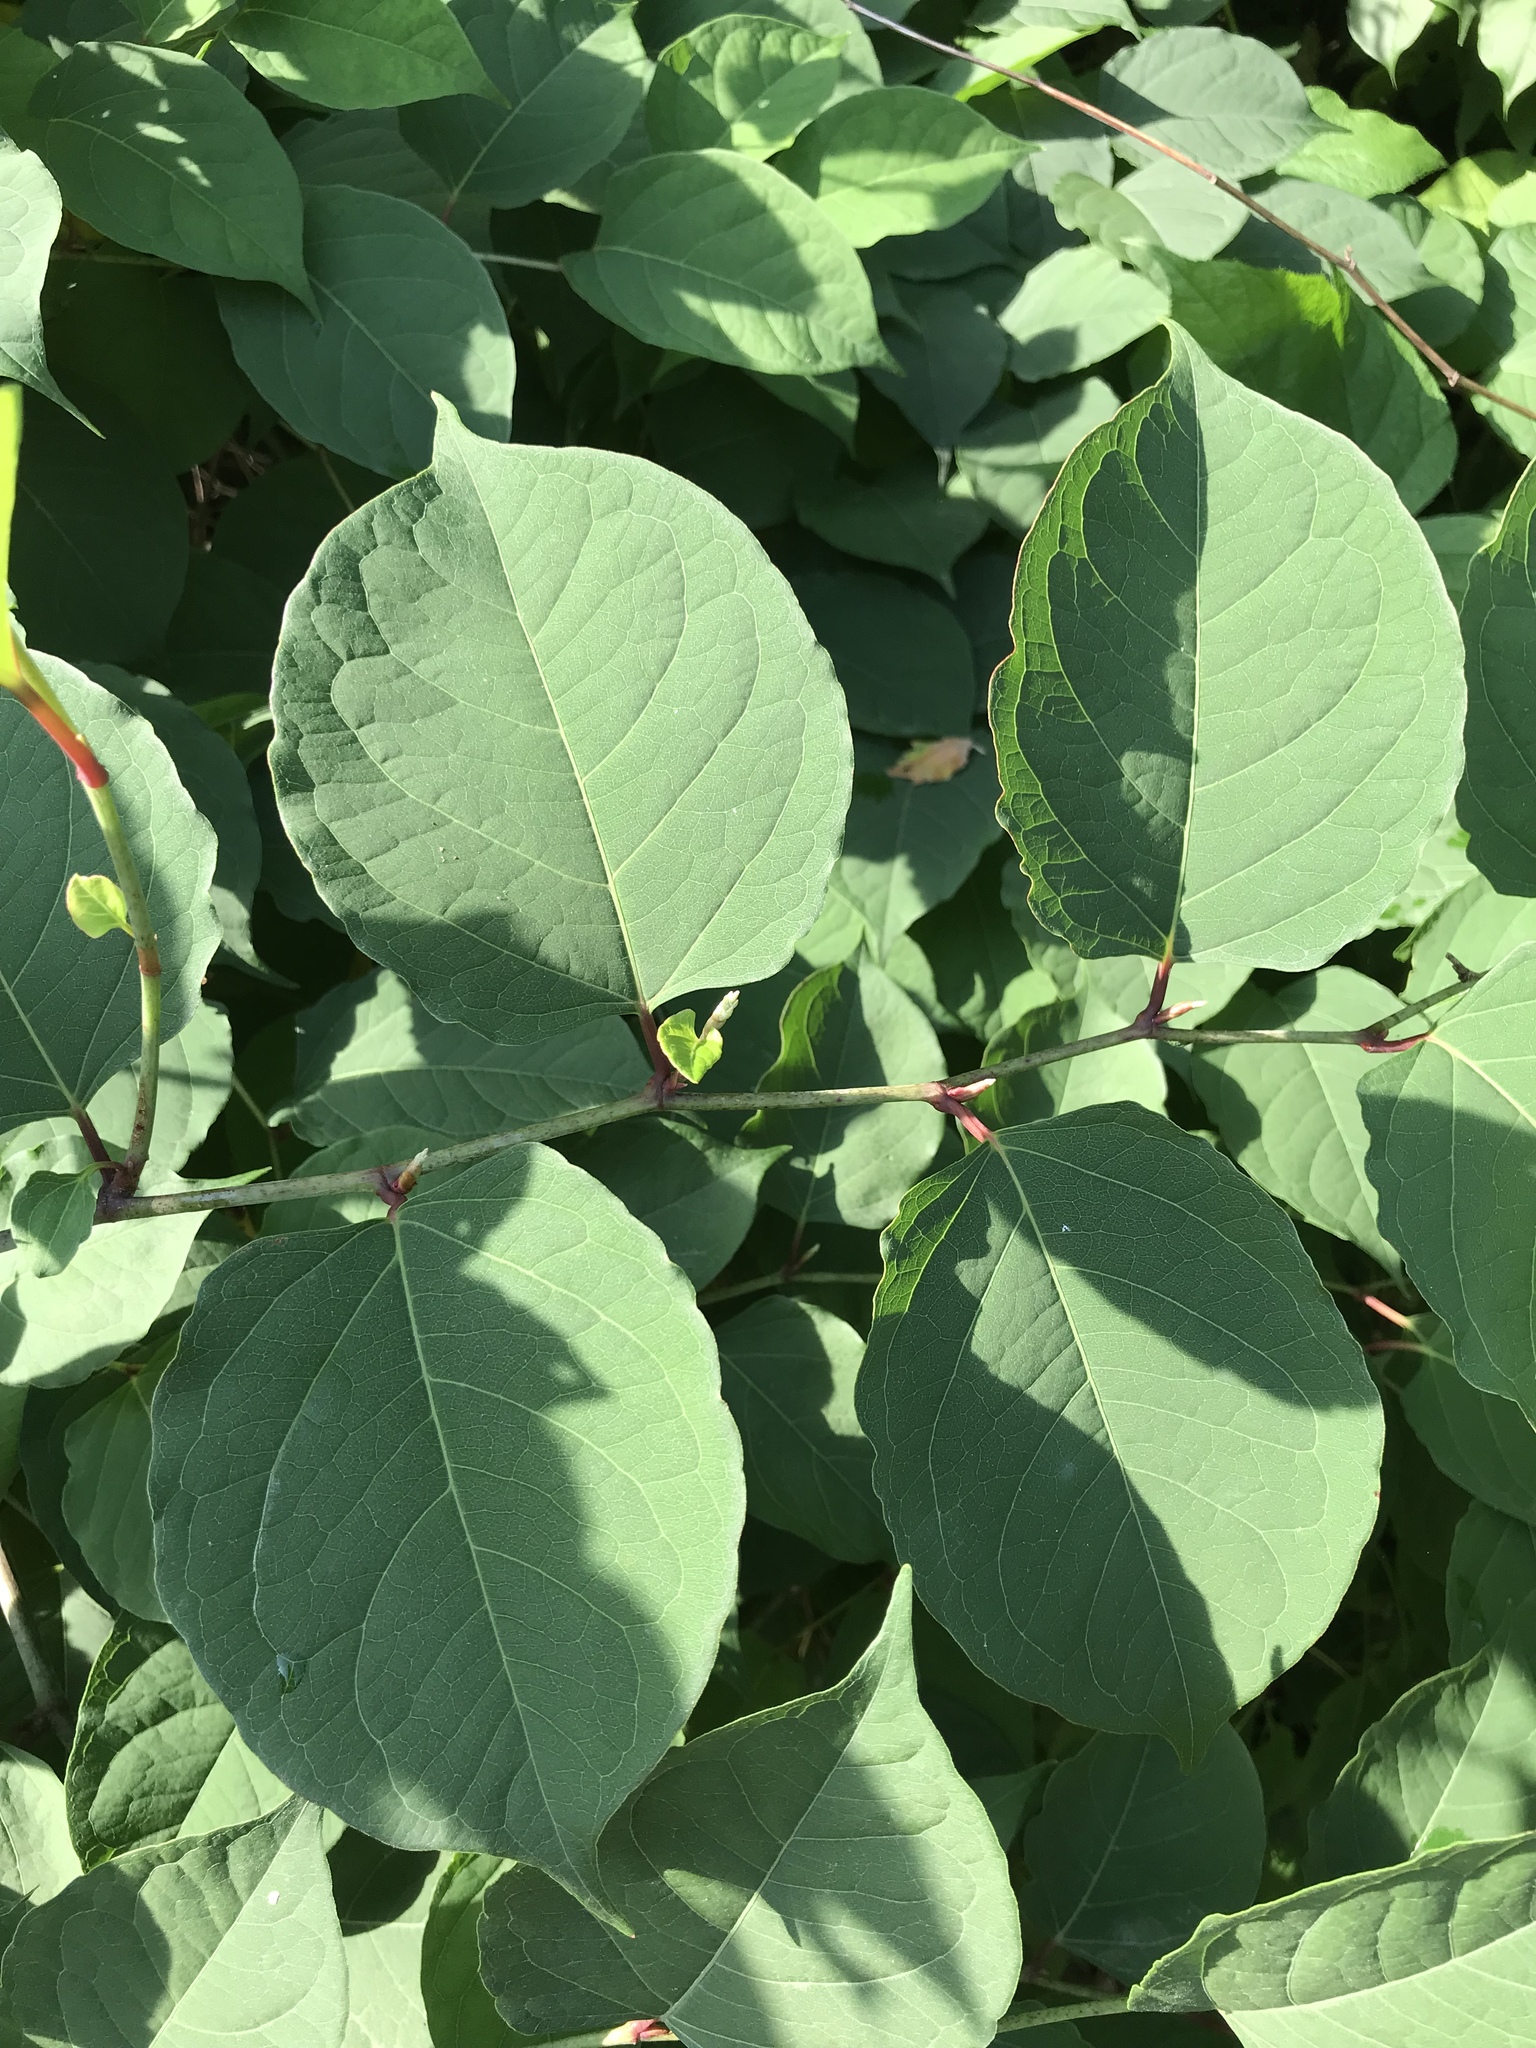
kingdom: Plantae
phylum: Tracheophyta
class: Magnoliopsida
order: Caryophyllales
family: Polygonaceae
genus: Reynoutria
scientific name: Reynoutria japonica
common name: Japanese knotweed
